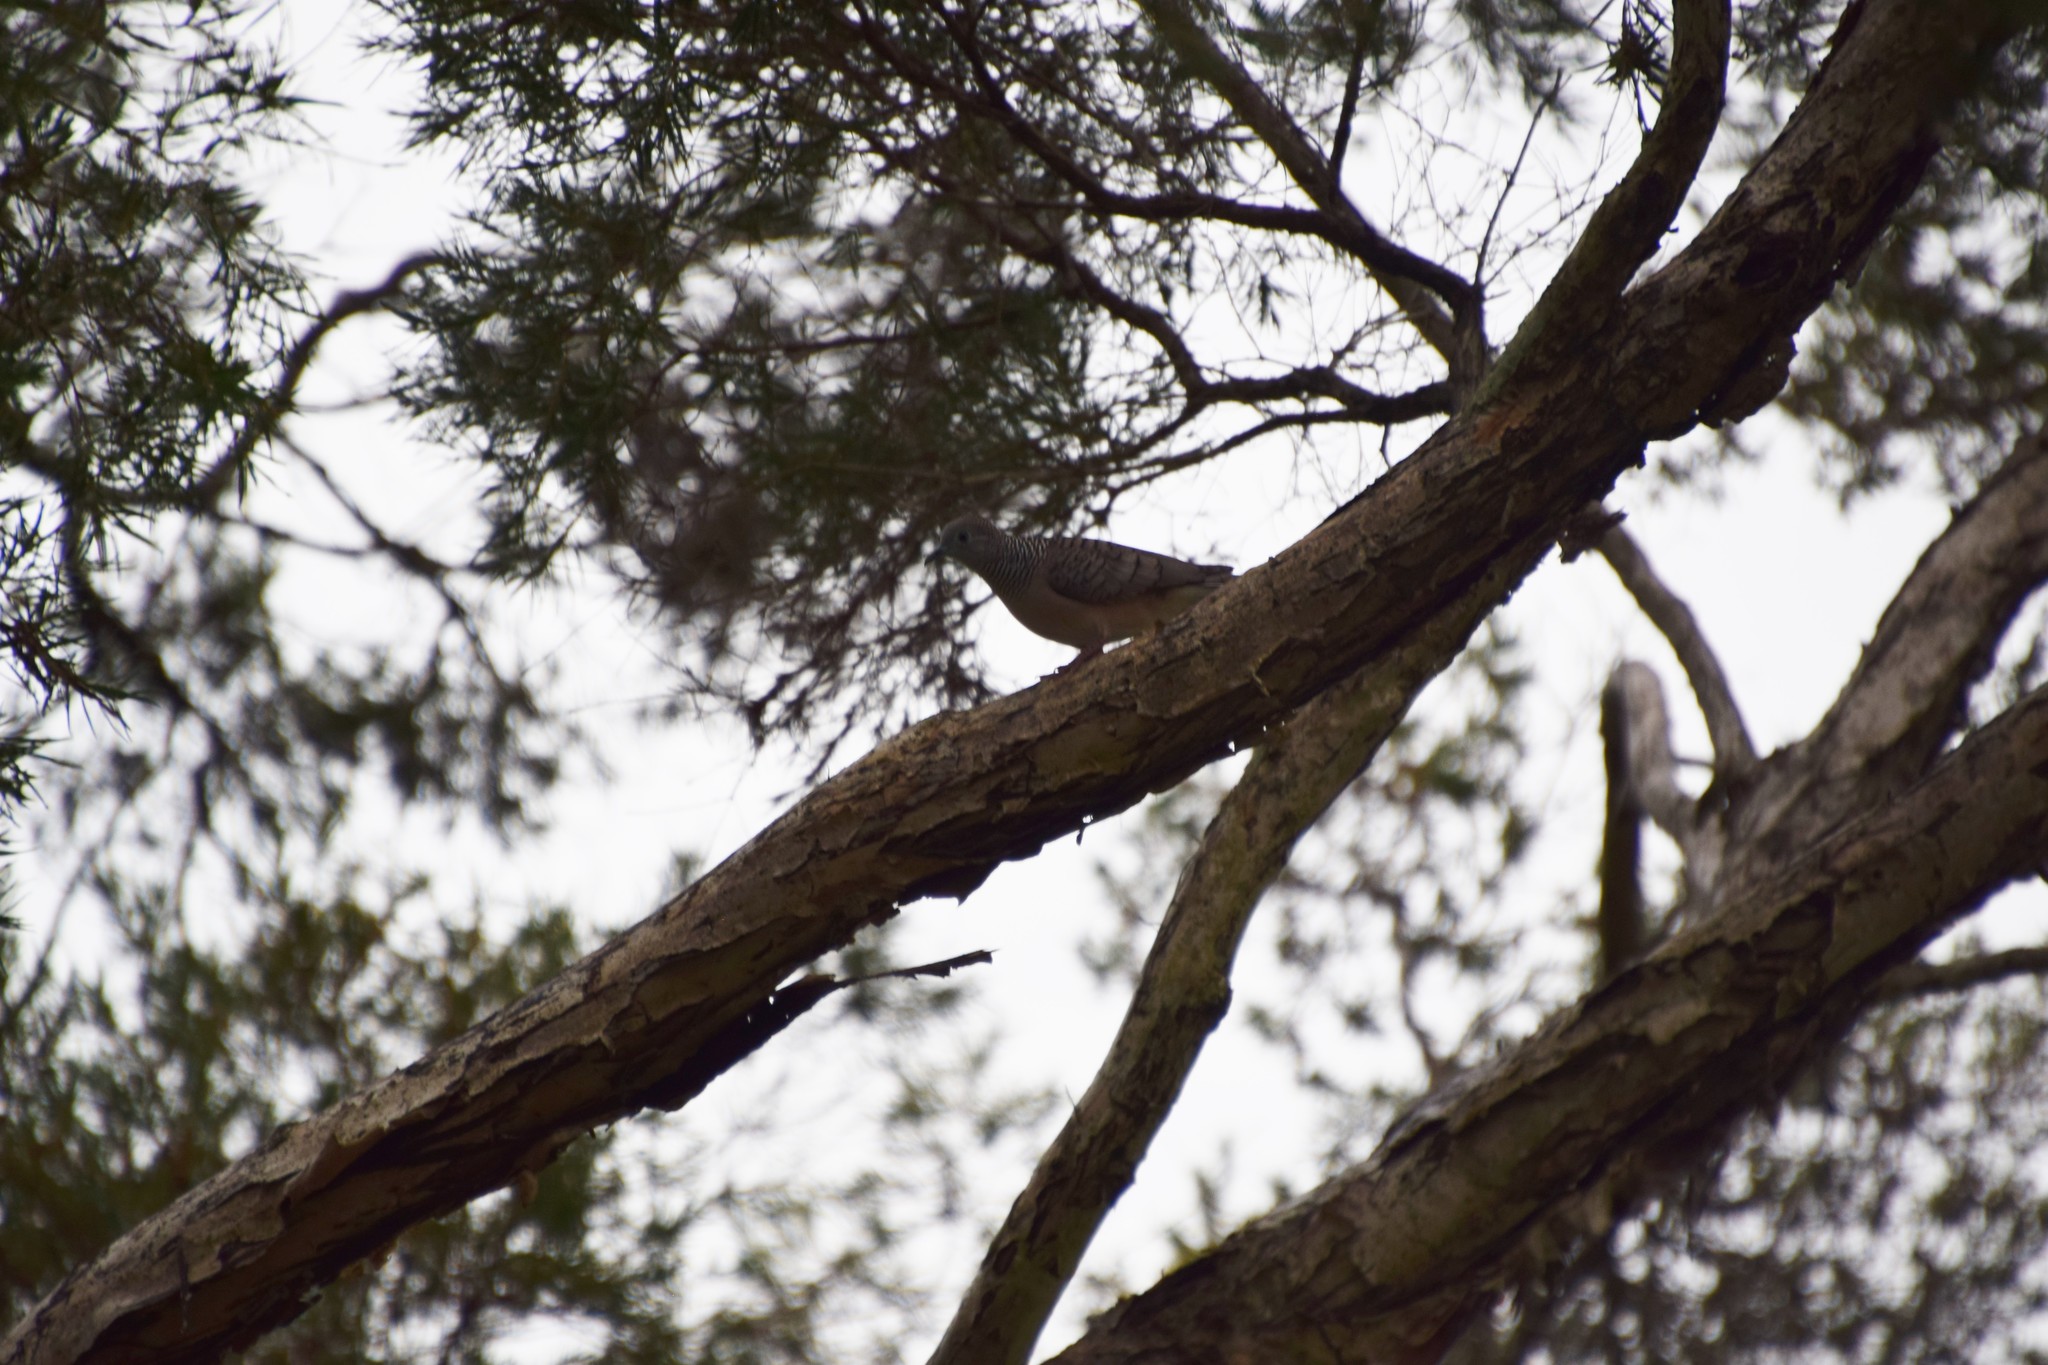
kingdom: Animalia
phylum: Chordata
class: Aves
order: Columbiformes
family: Columbidae
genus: Geopelia
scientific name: Geopelia placida
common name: Peaceful dove
